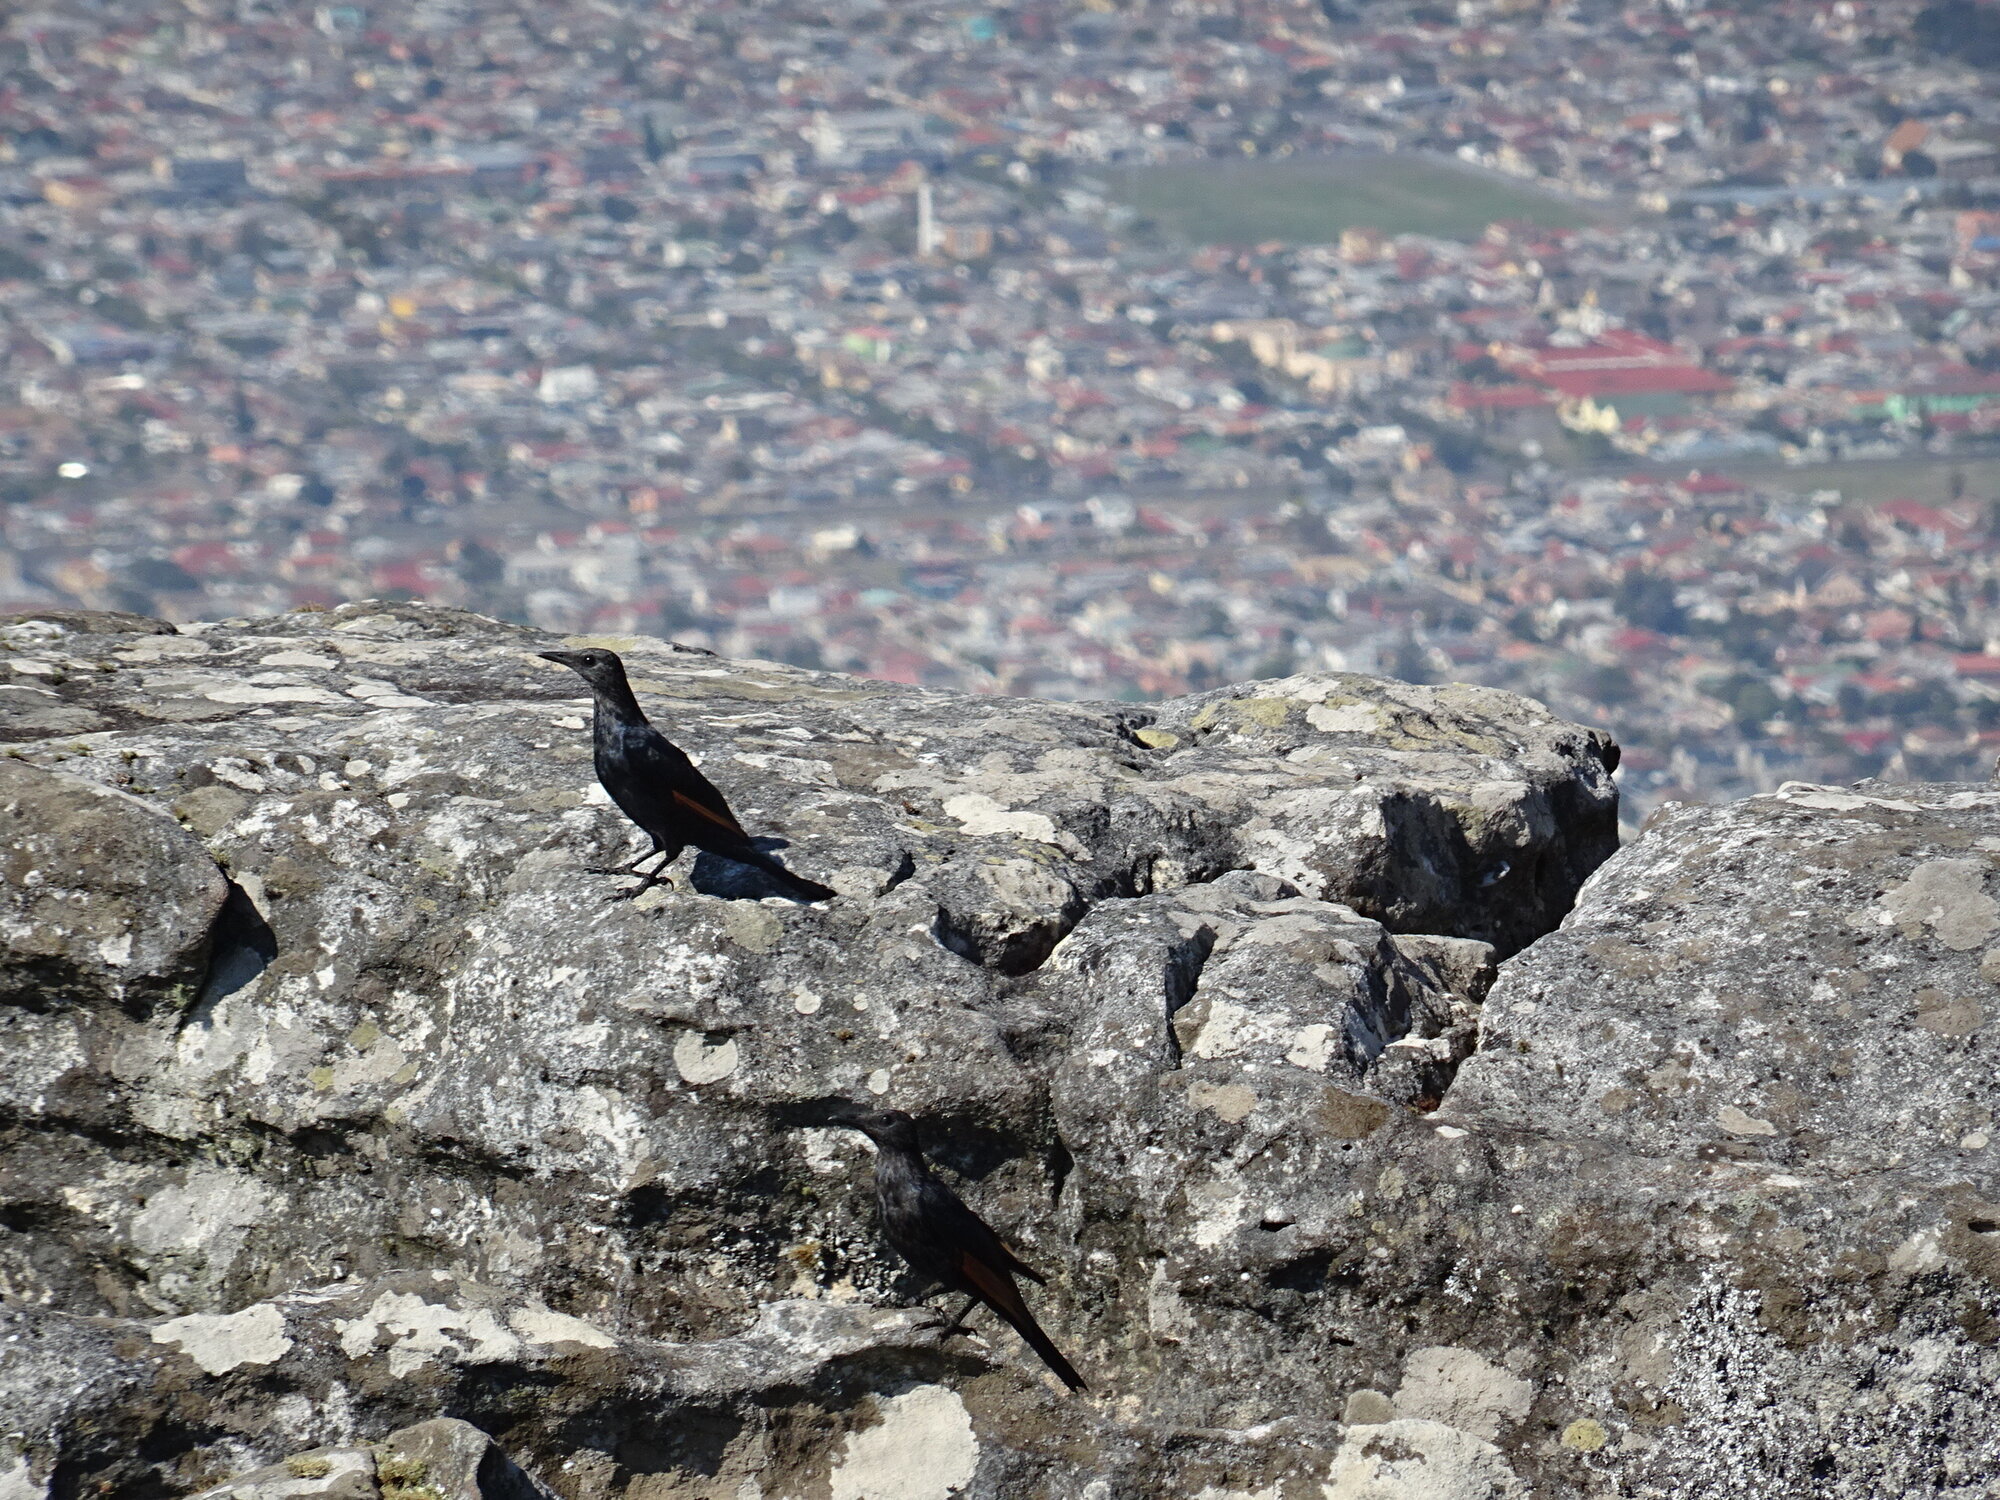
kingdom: Animalia
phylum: Chordata
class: Aves
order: Passeriformes
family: Sturnidae
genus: Onychognathus
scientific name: Onychognathus morio
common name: Red-winged starling
